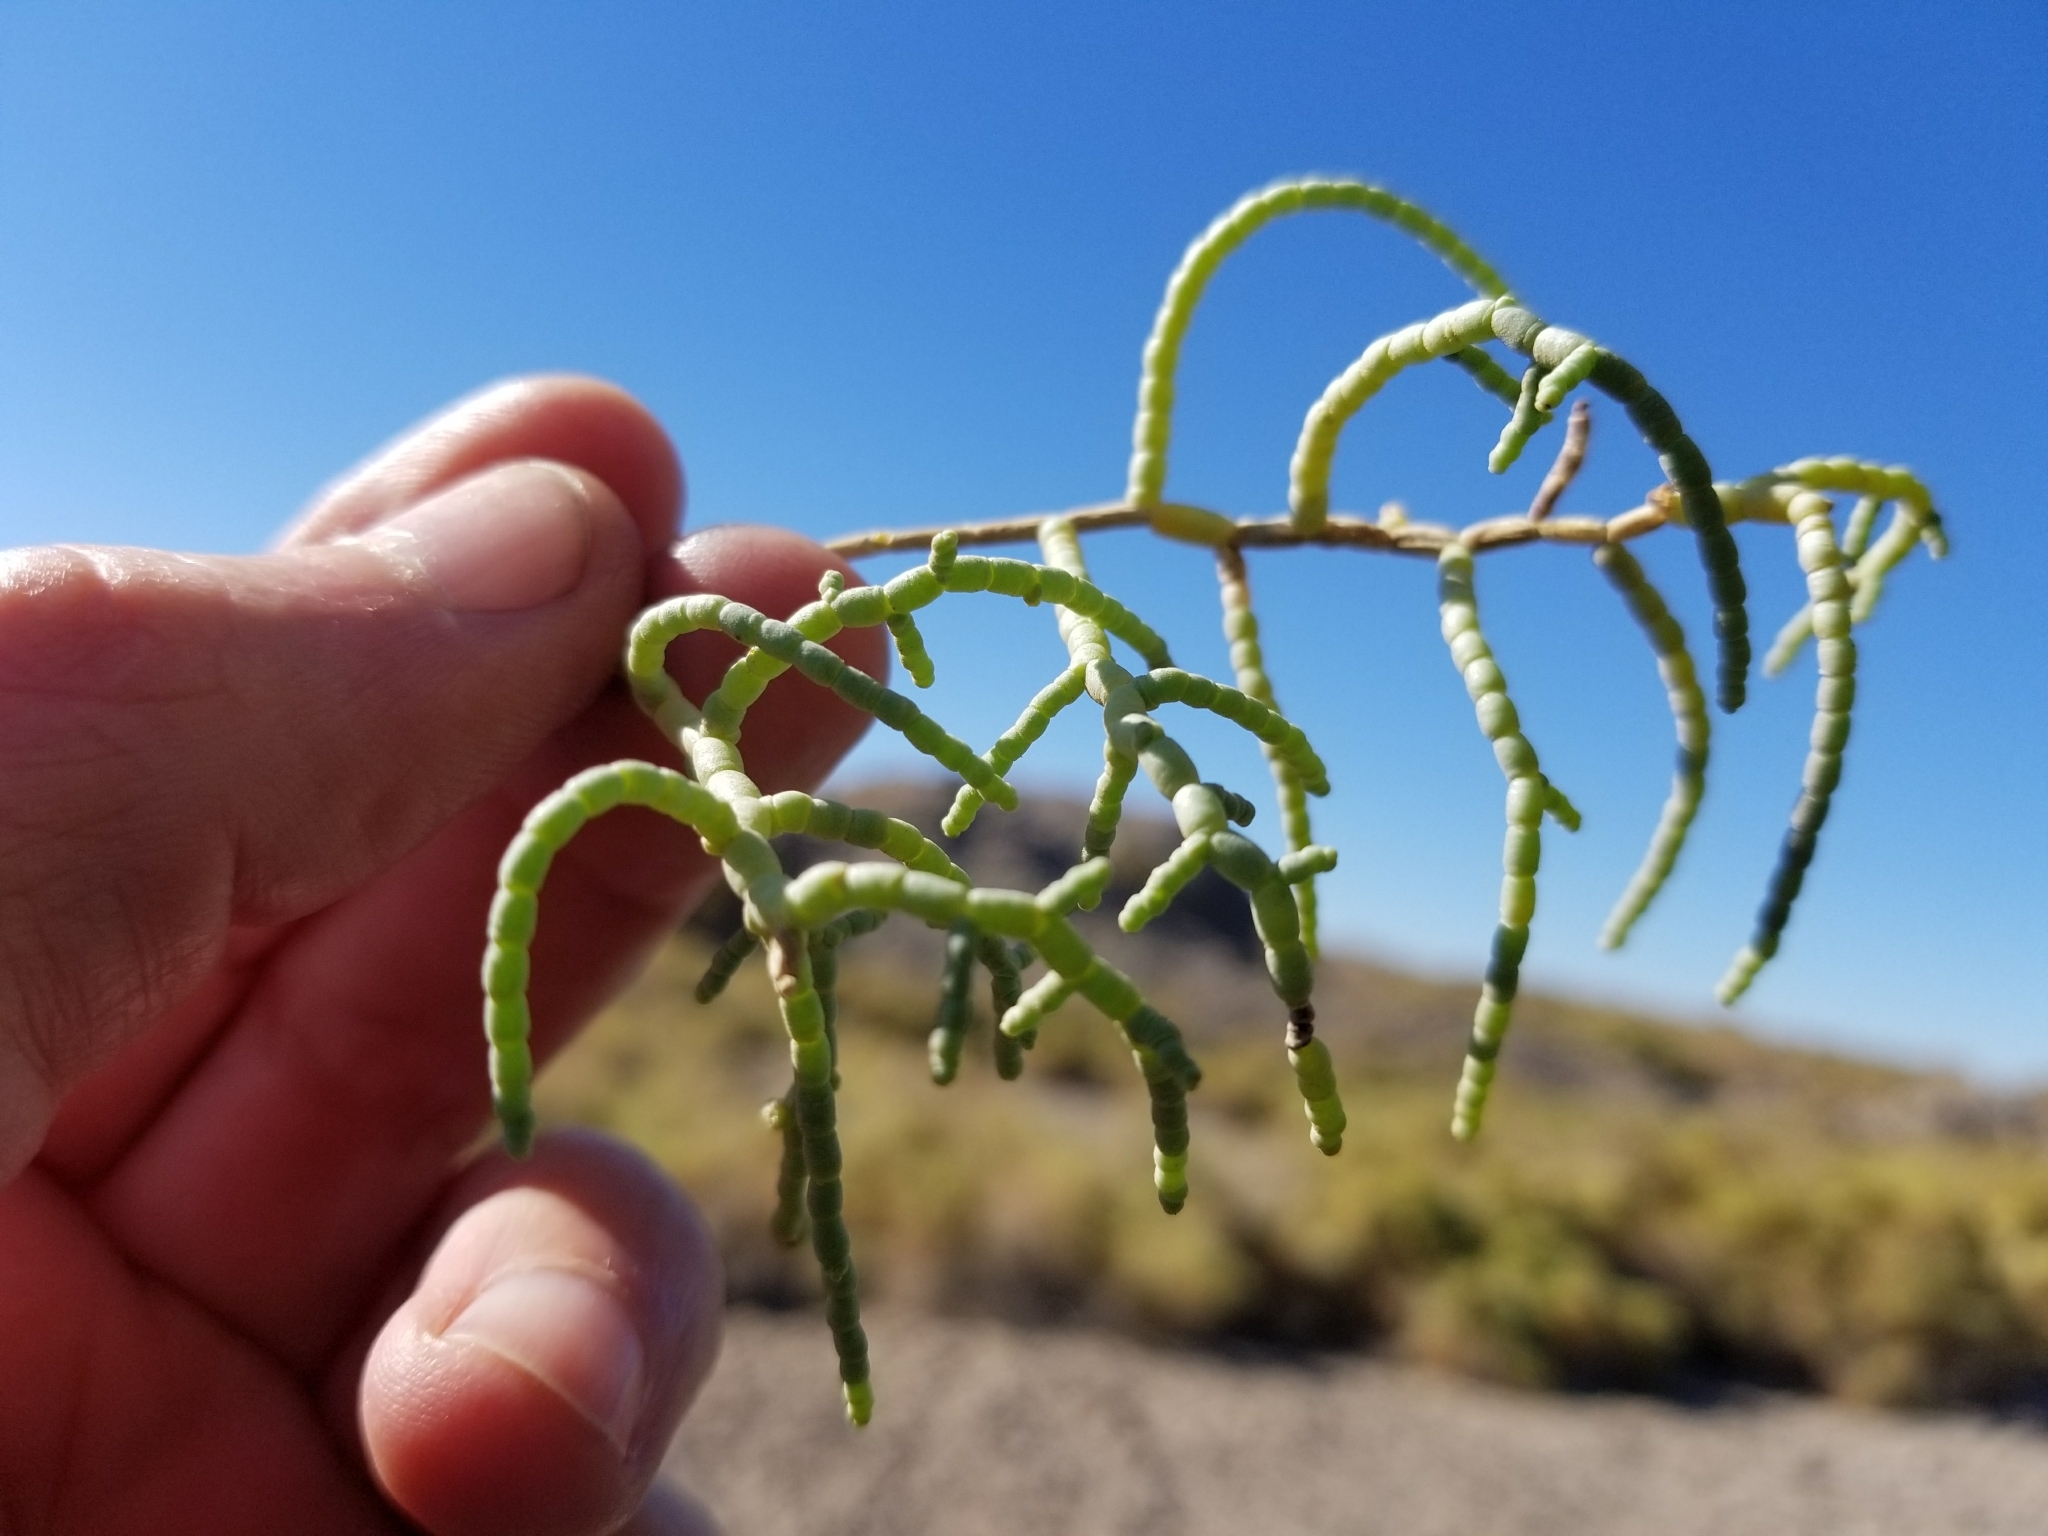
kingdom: Plantae
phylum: Tracheophyta
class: Magnoliopsida
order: Caryophyllales
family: Amaranthaceae
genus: Allenrolfea
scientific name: Allenrolfea occidentalis
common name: Iodine-bush
